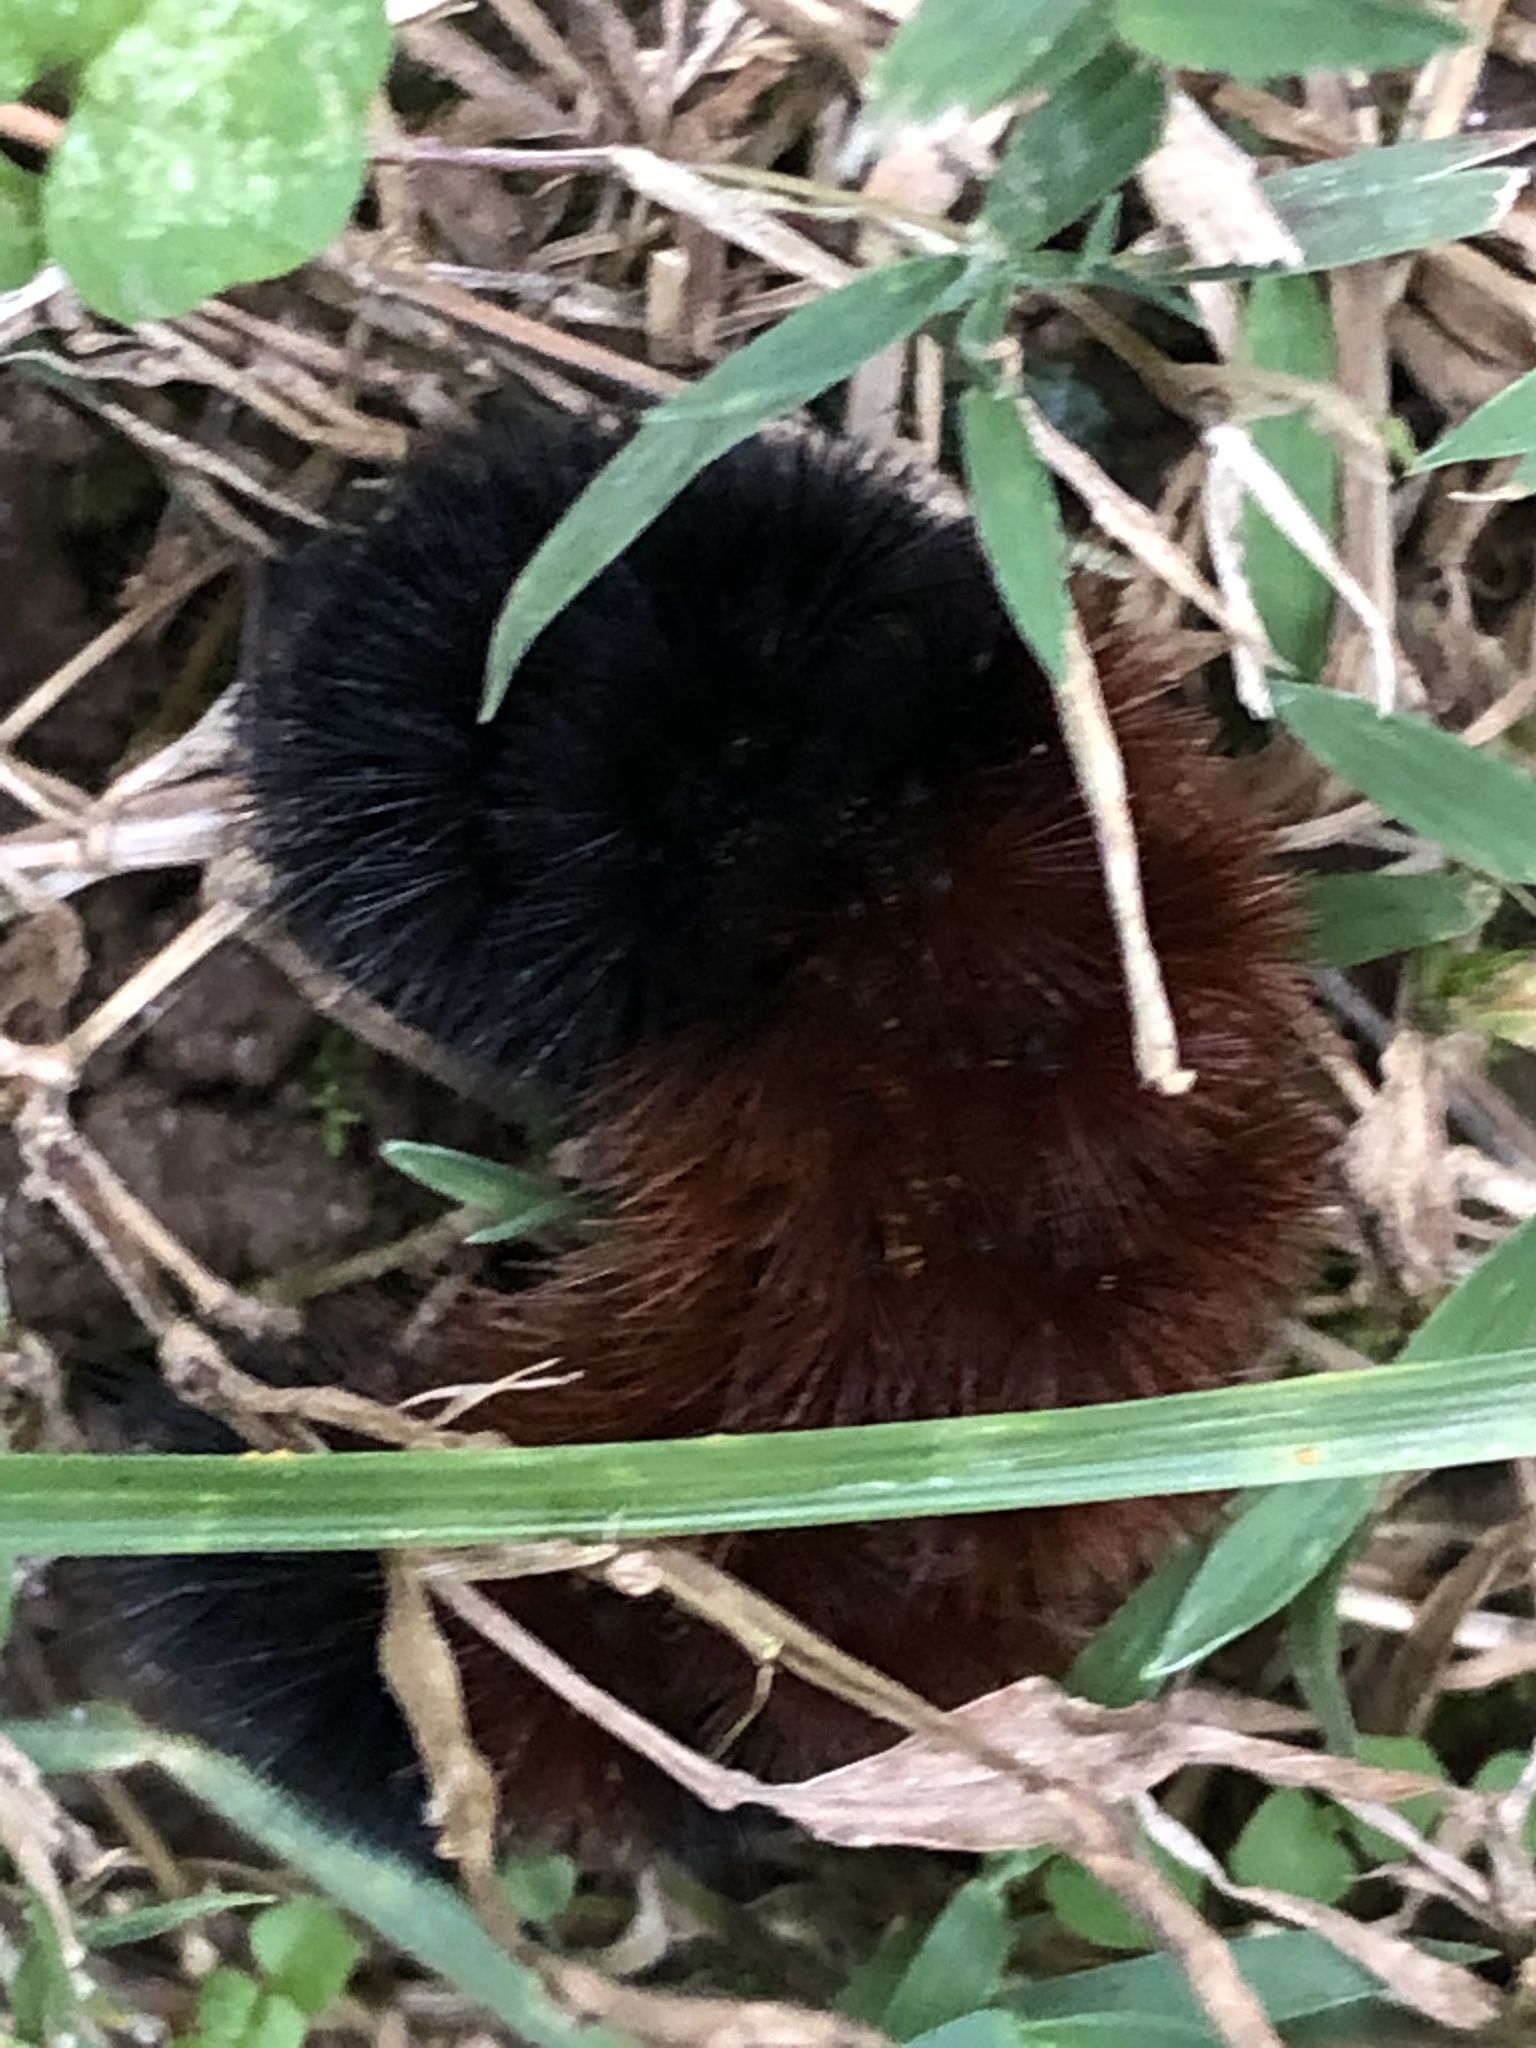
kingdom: Animalia
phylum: Arthropoda
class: Insecta
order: Lepidoptera
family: Erebidae
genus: Pyrrharctia
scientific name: Pyrrharctia isabella
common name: Isabella tiger moth
